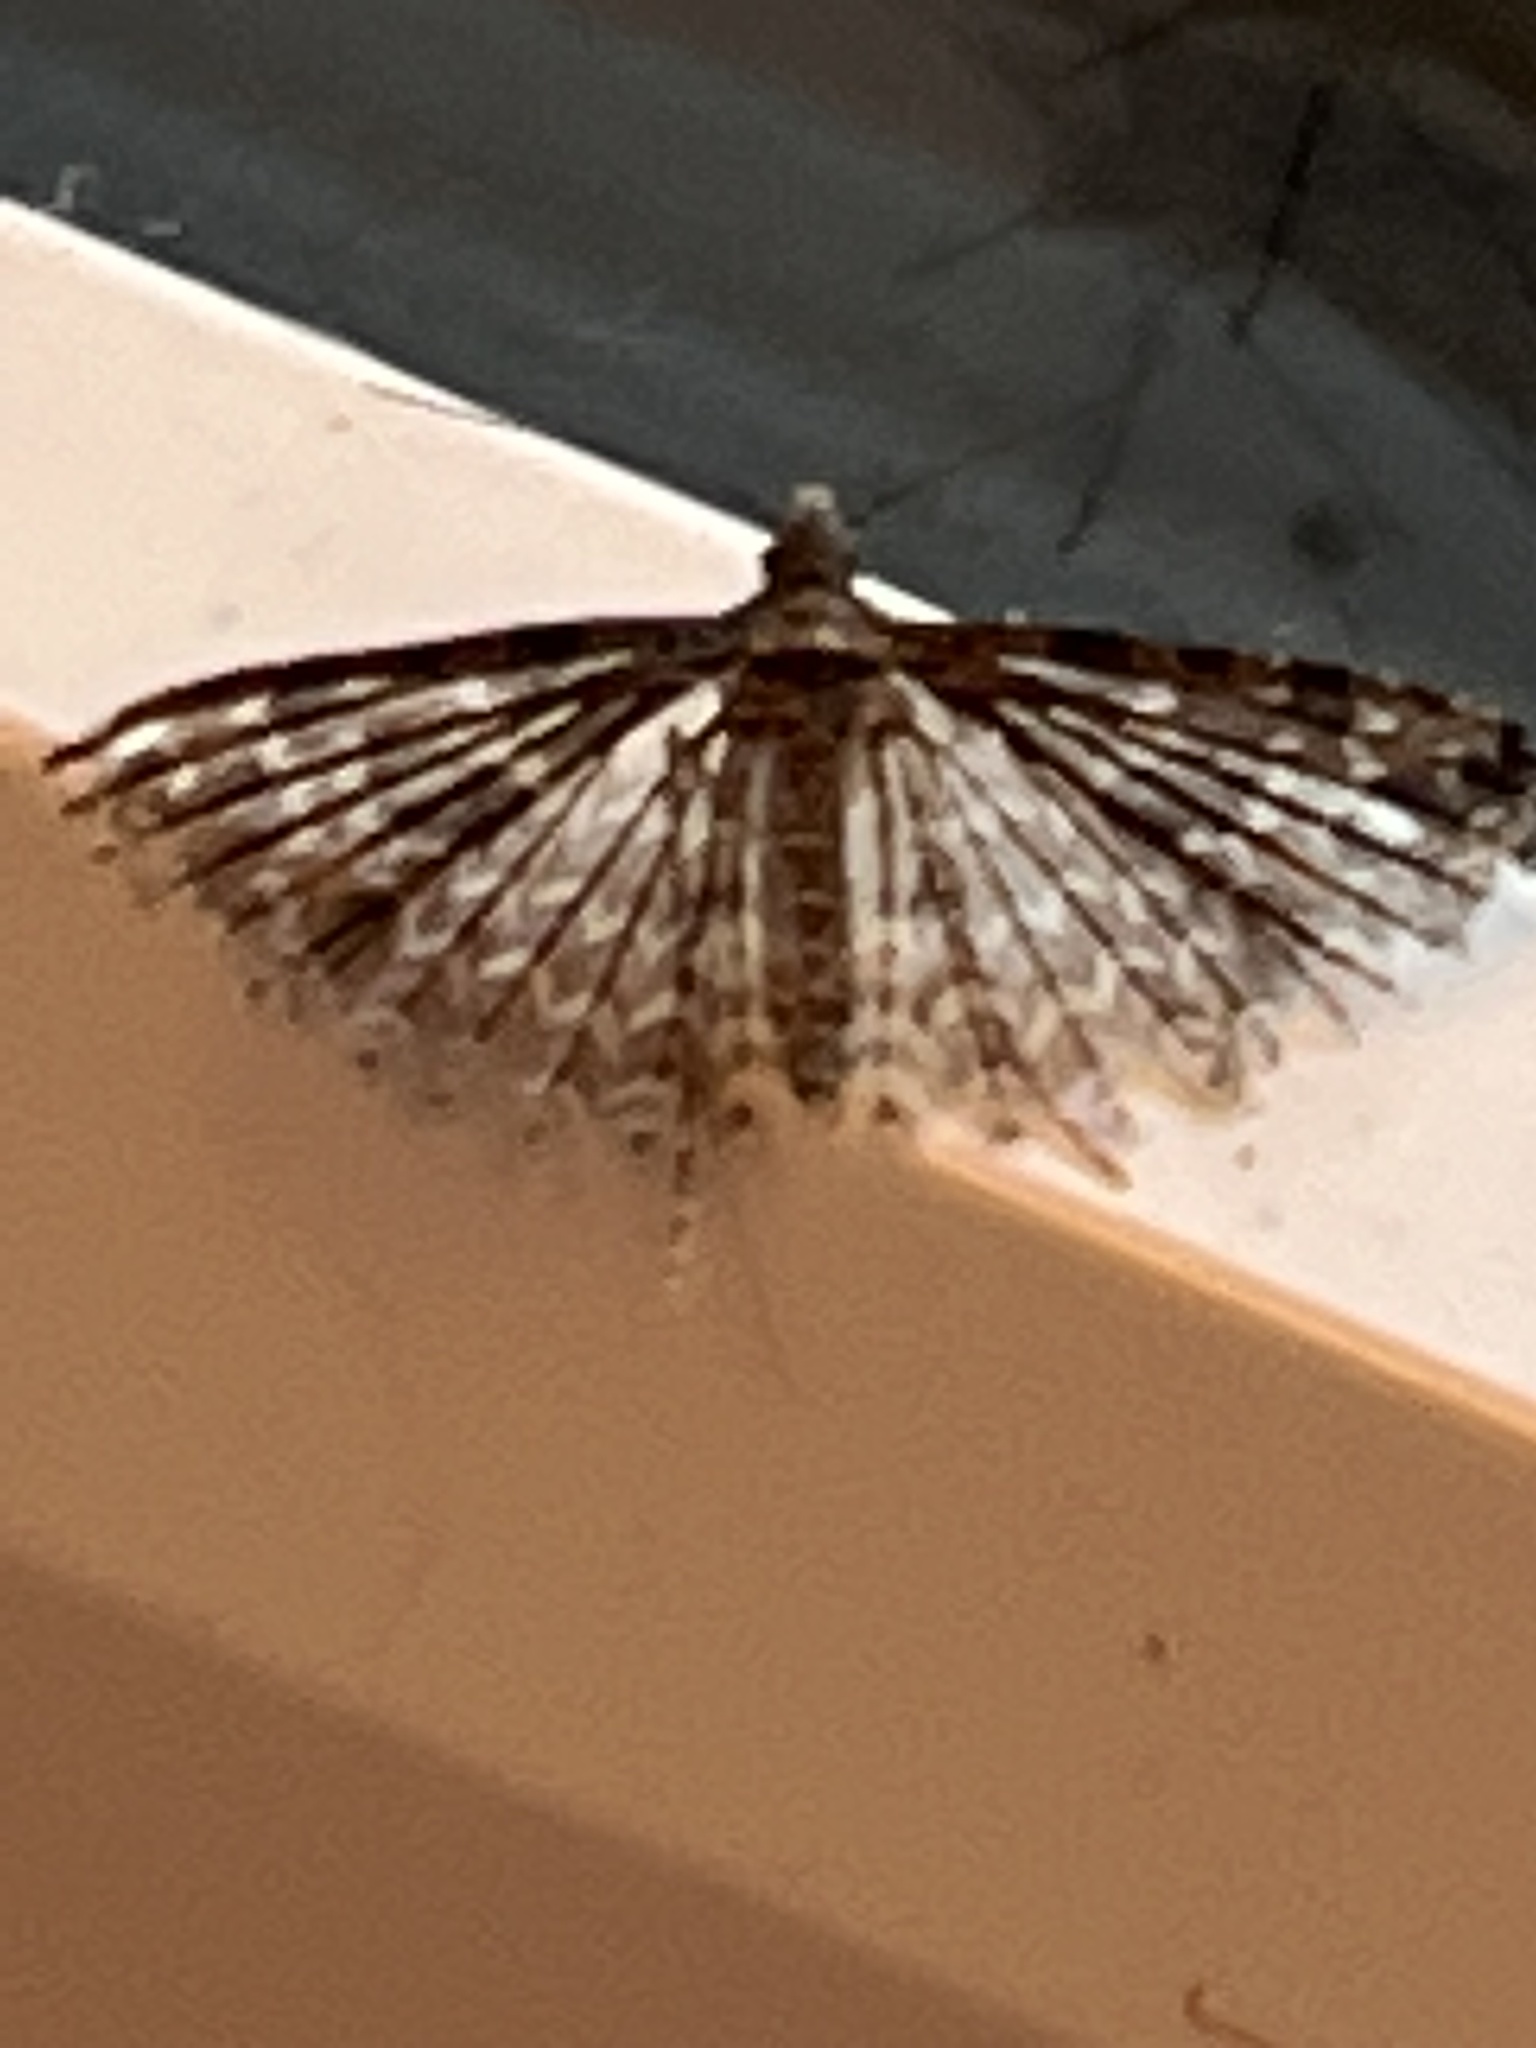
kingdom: Animalia
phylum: Arthropoda
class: Insecta
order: Lepidoptera
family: Alucitidae
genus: Alucita
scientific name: Alucita montana
